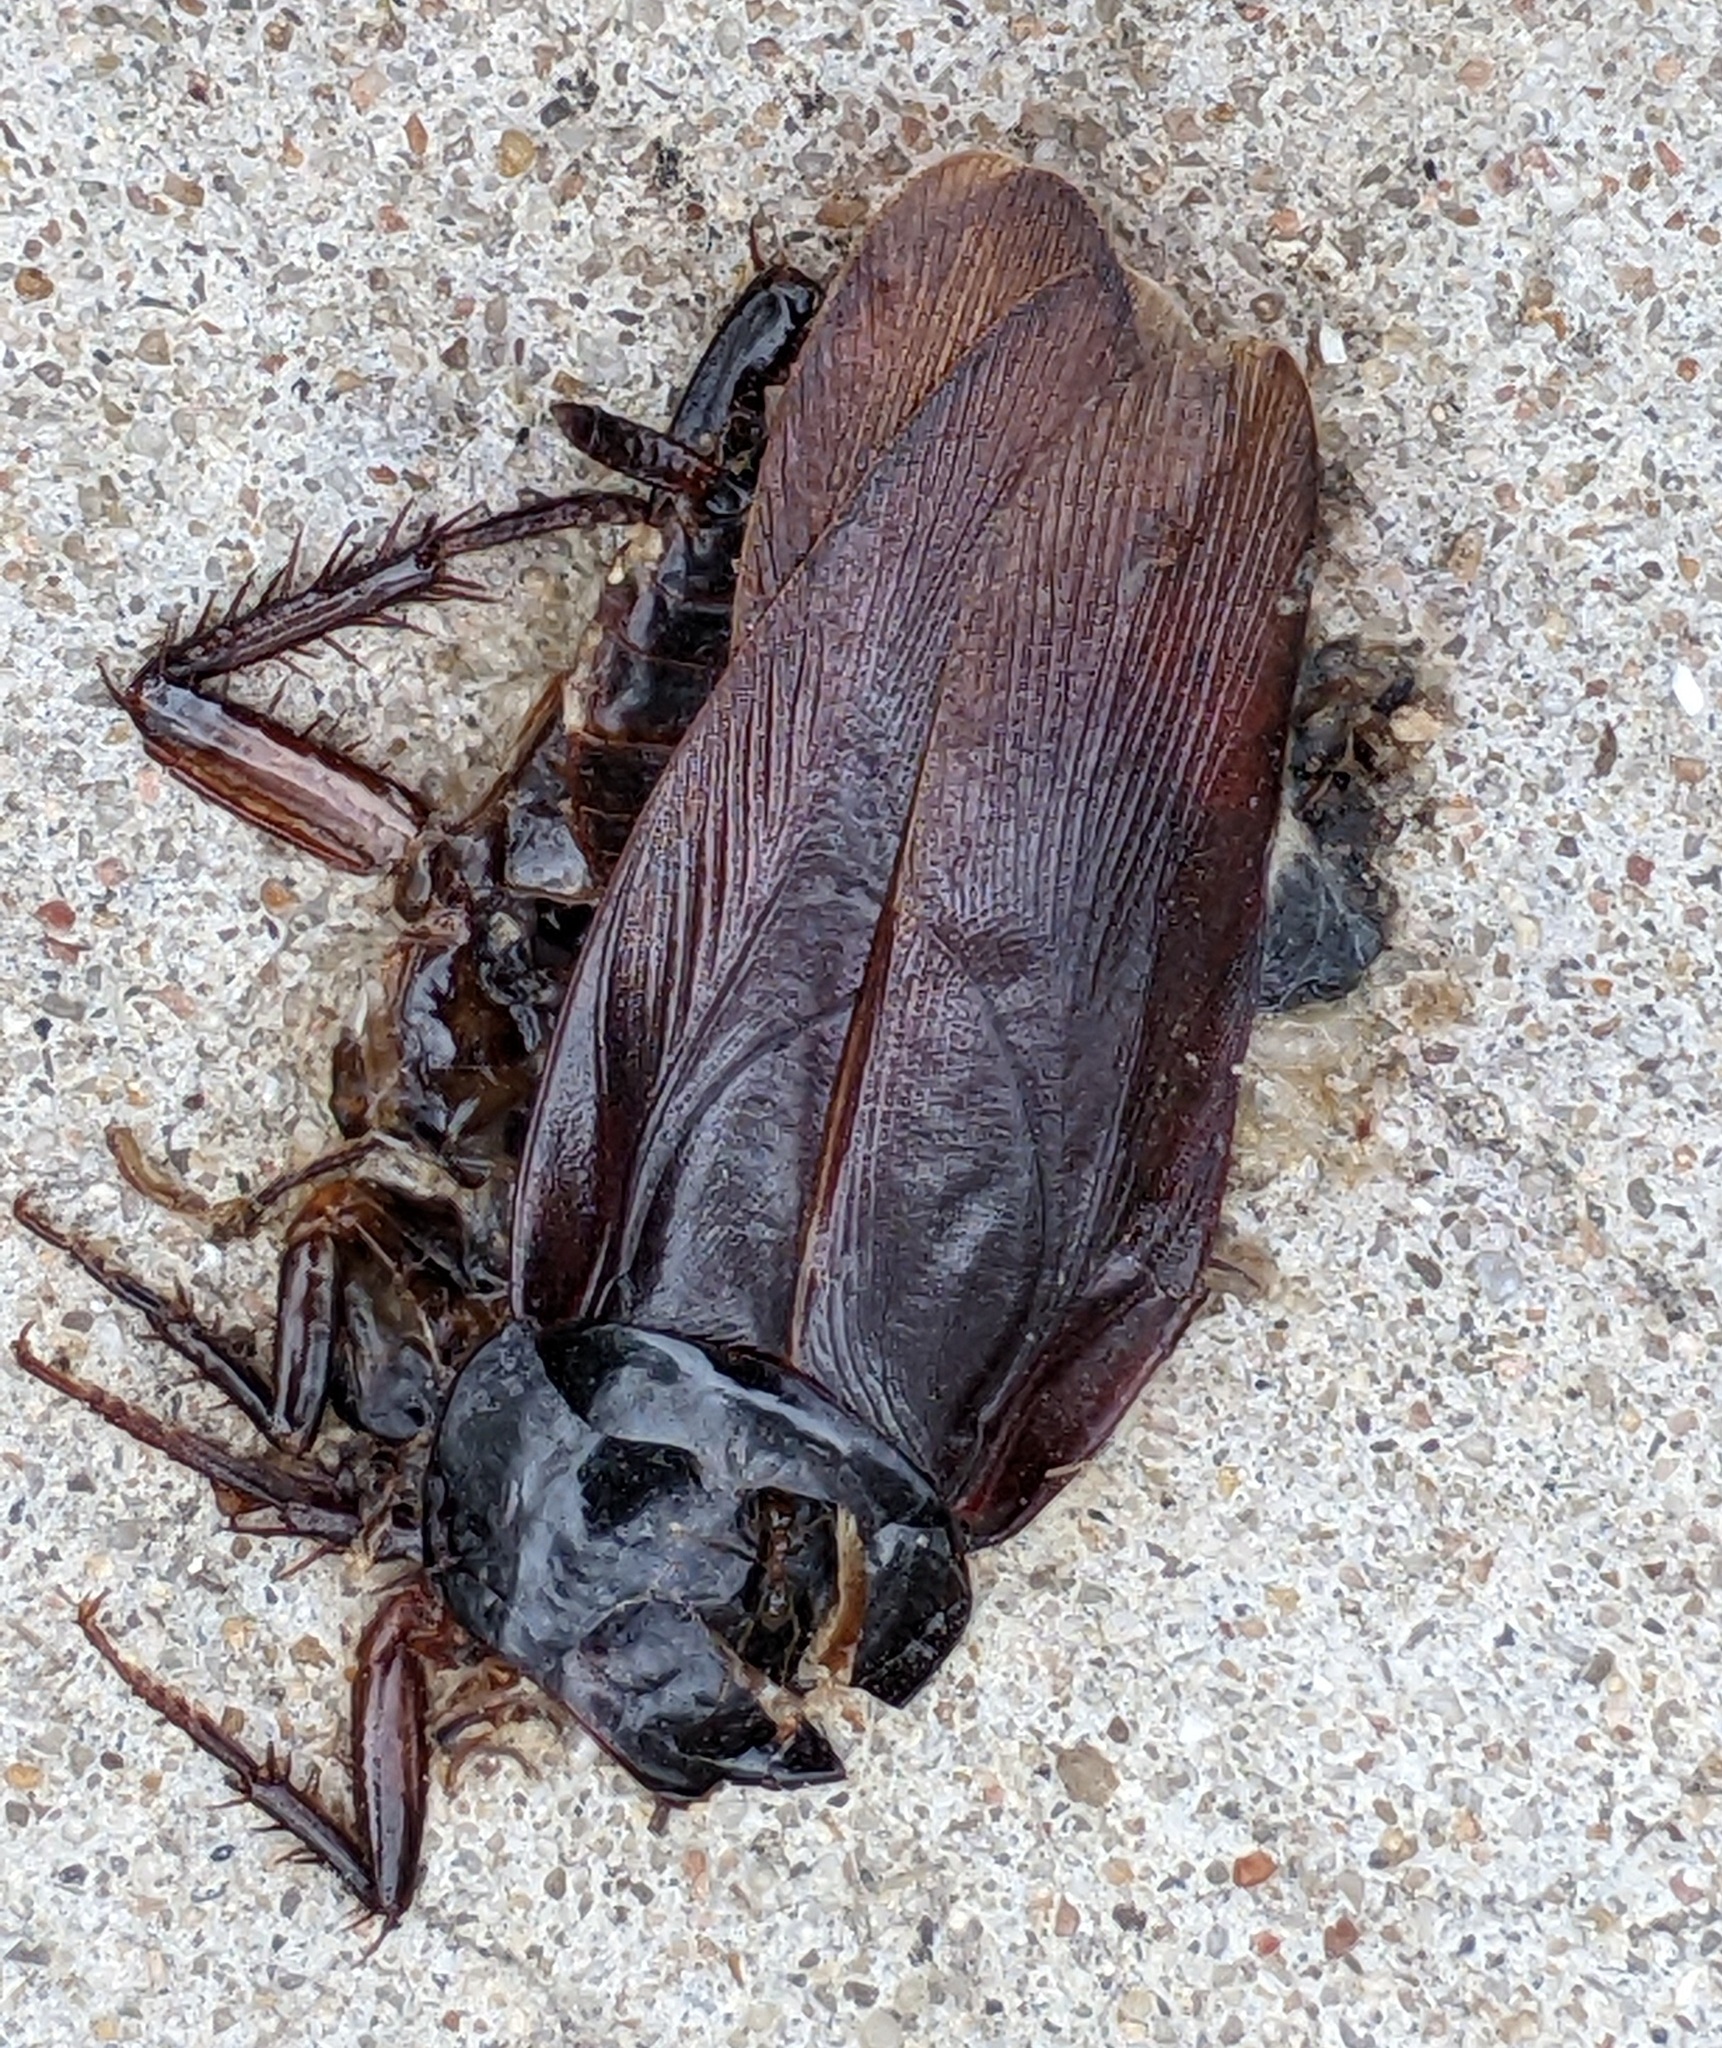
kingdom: Animalia
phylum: Arthropoda
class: Insecta
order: Blattodea
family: Blattidae
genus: Periplaneta
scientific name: Periplaneta fuliginosa
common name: Smokeybrown cockroad
